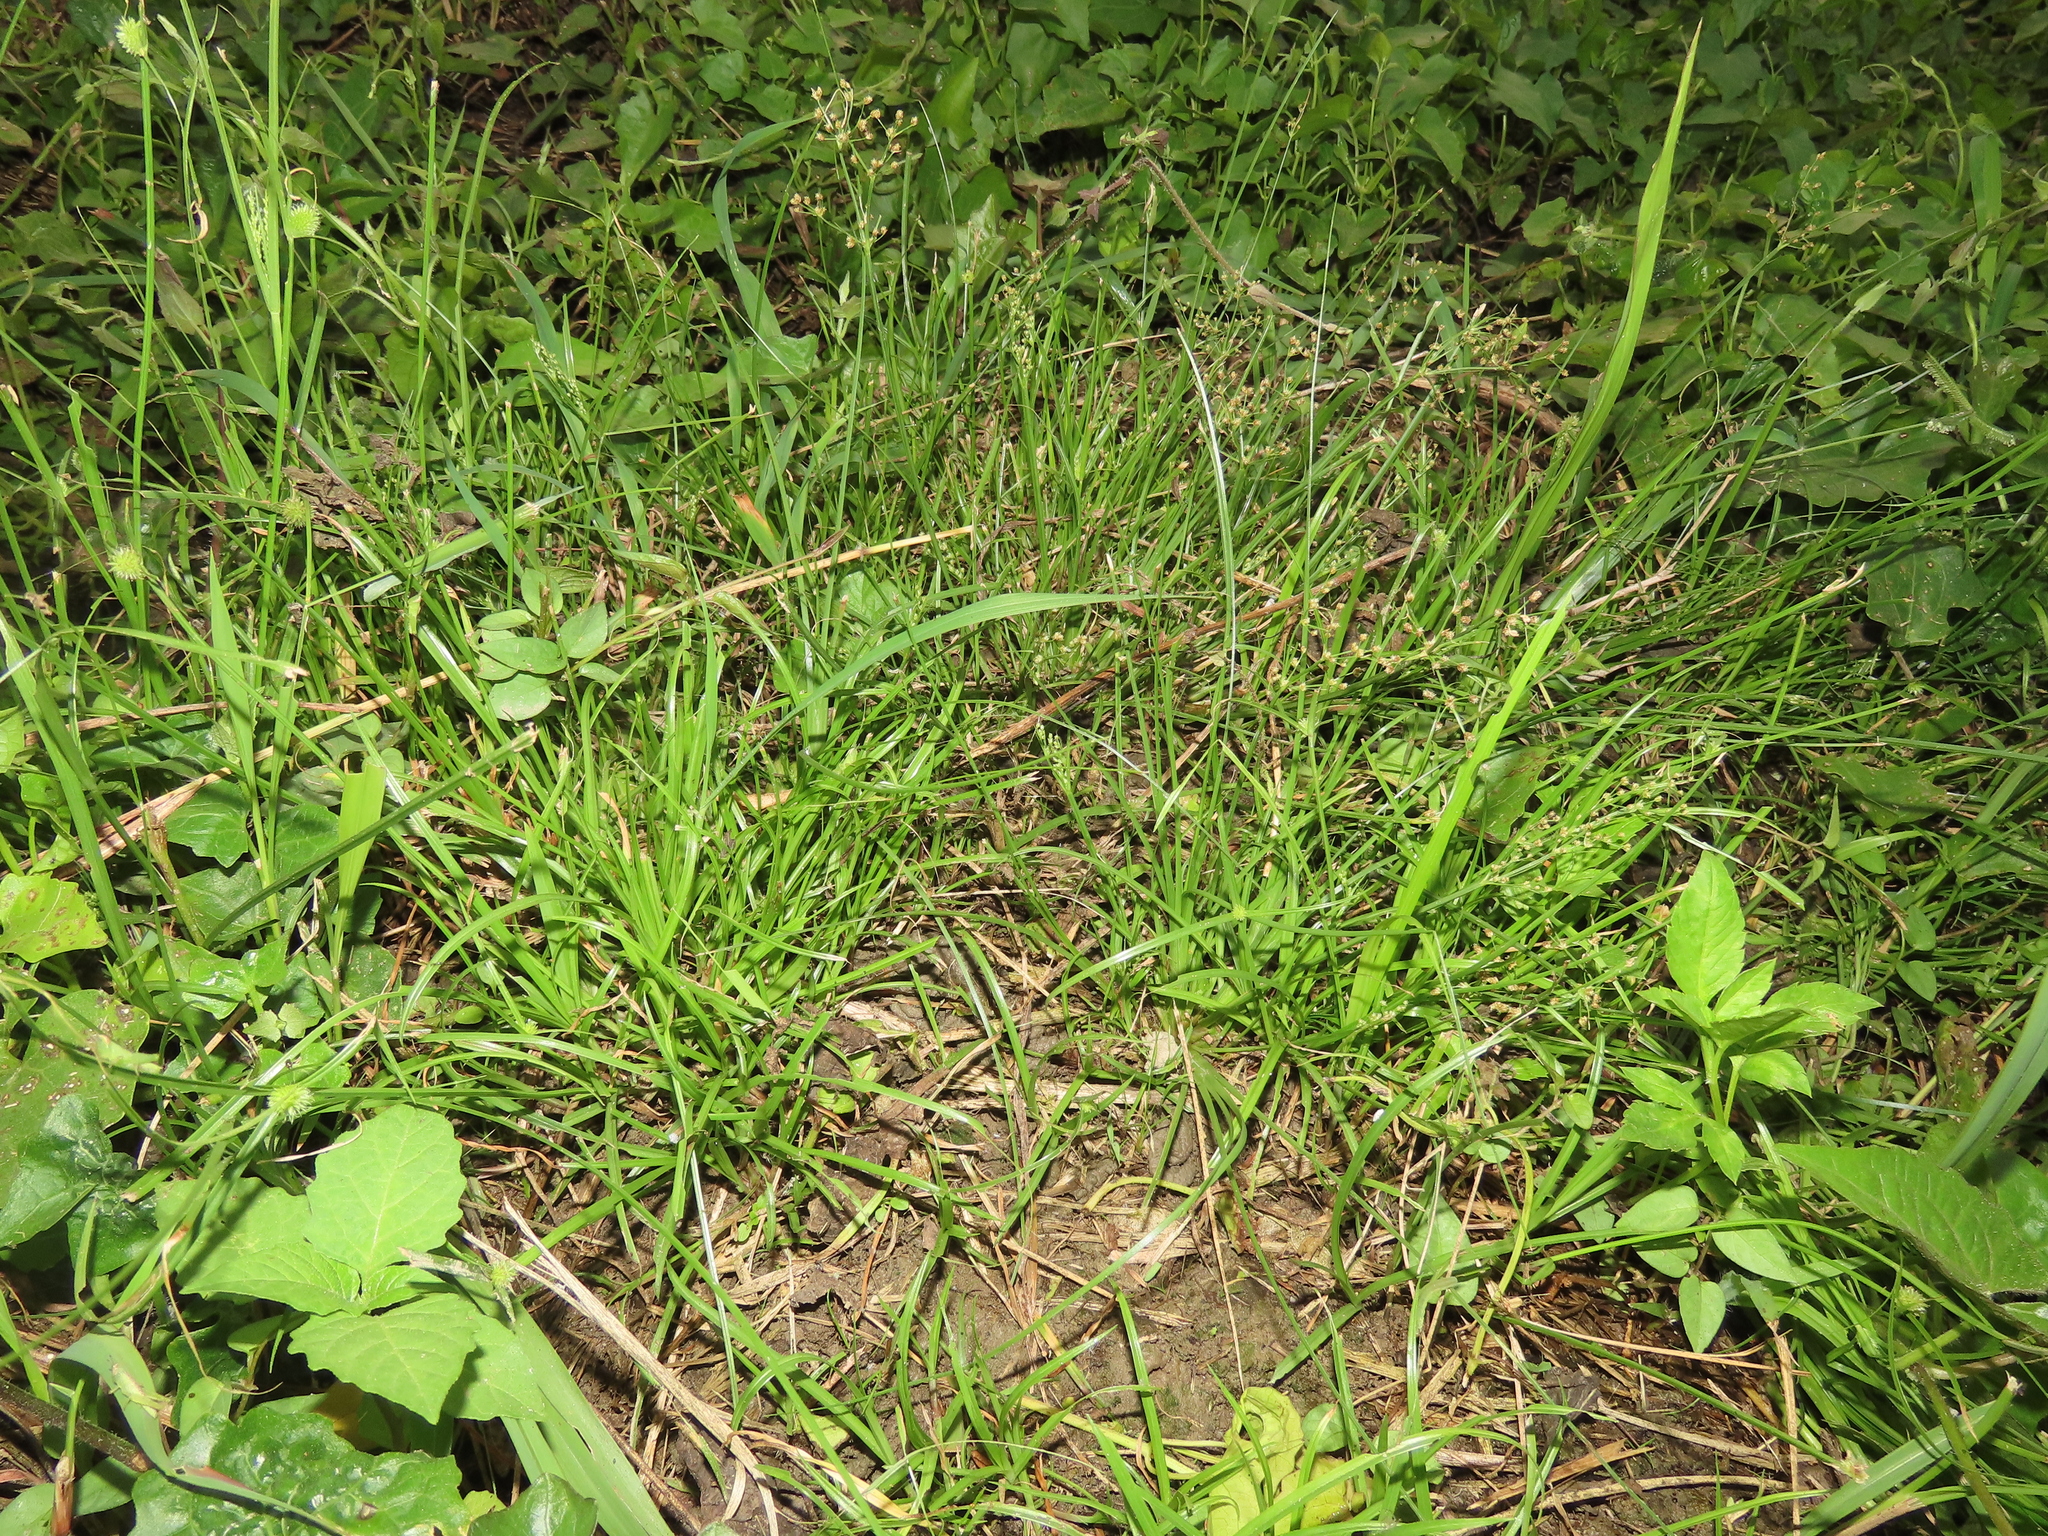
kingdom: Plantae
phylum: Tracheophyta
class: Liliopsida
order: Poales
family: Cyperaceae
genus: Fimbristylis
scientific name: Fimbristylis littoralis
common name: Fimbry
